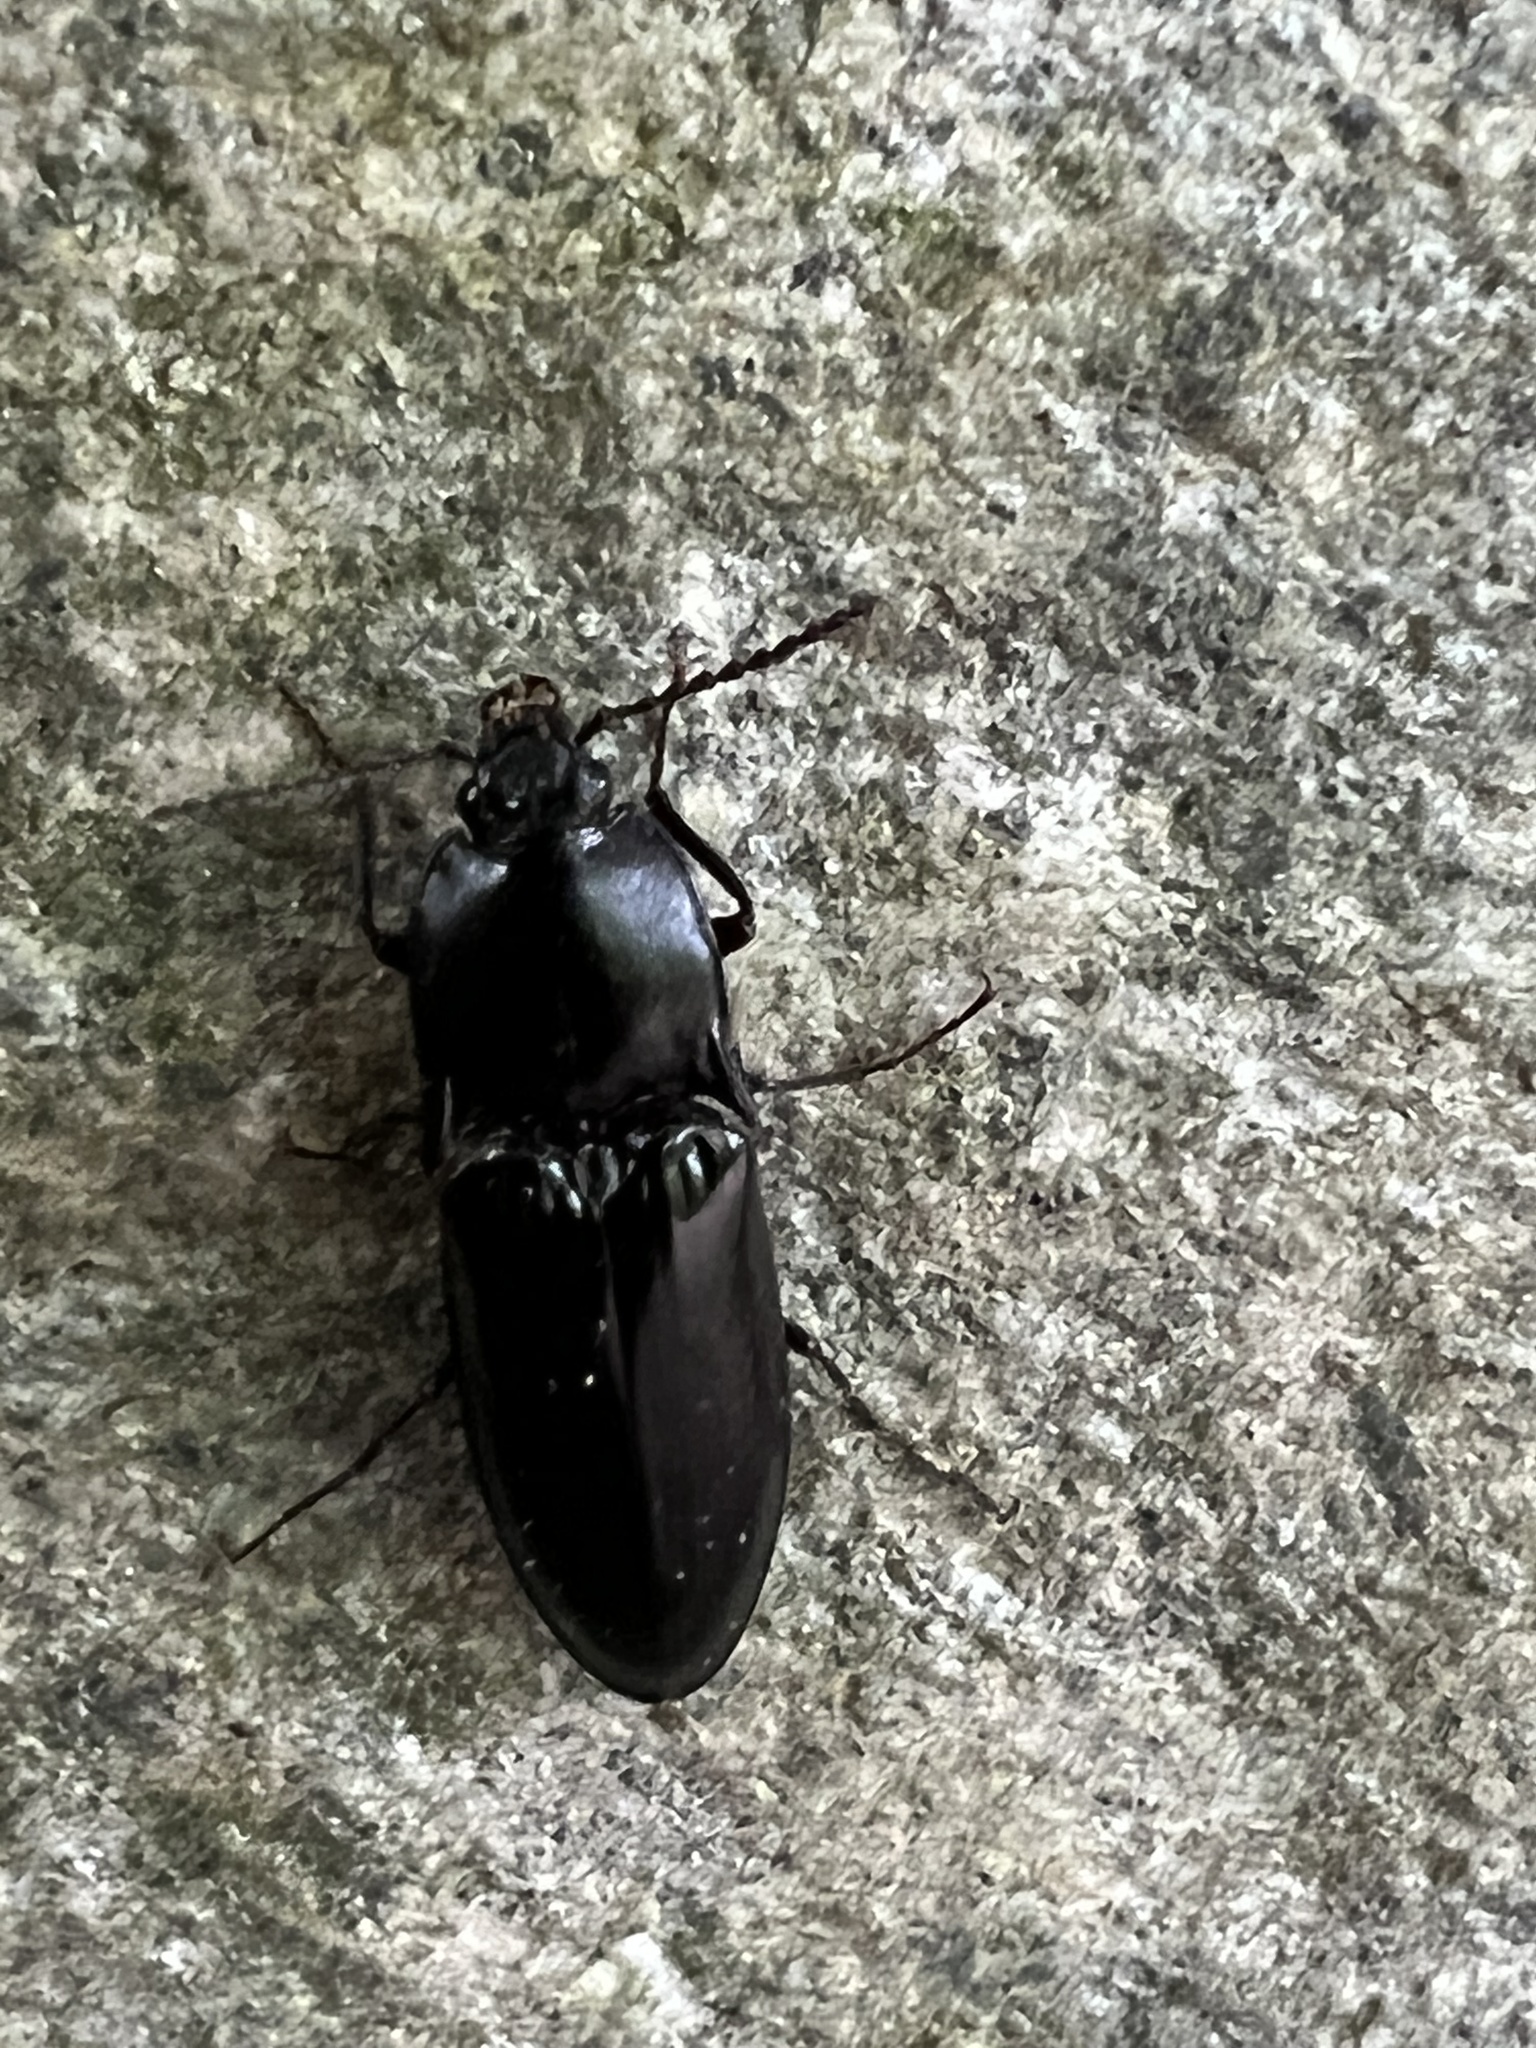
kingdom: Animalia
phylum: Arthropoda
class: Insecta
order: Coleoptera
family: Elateridae
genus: Melanactes
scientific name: Melanactes piceus
